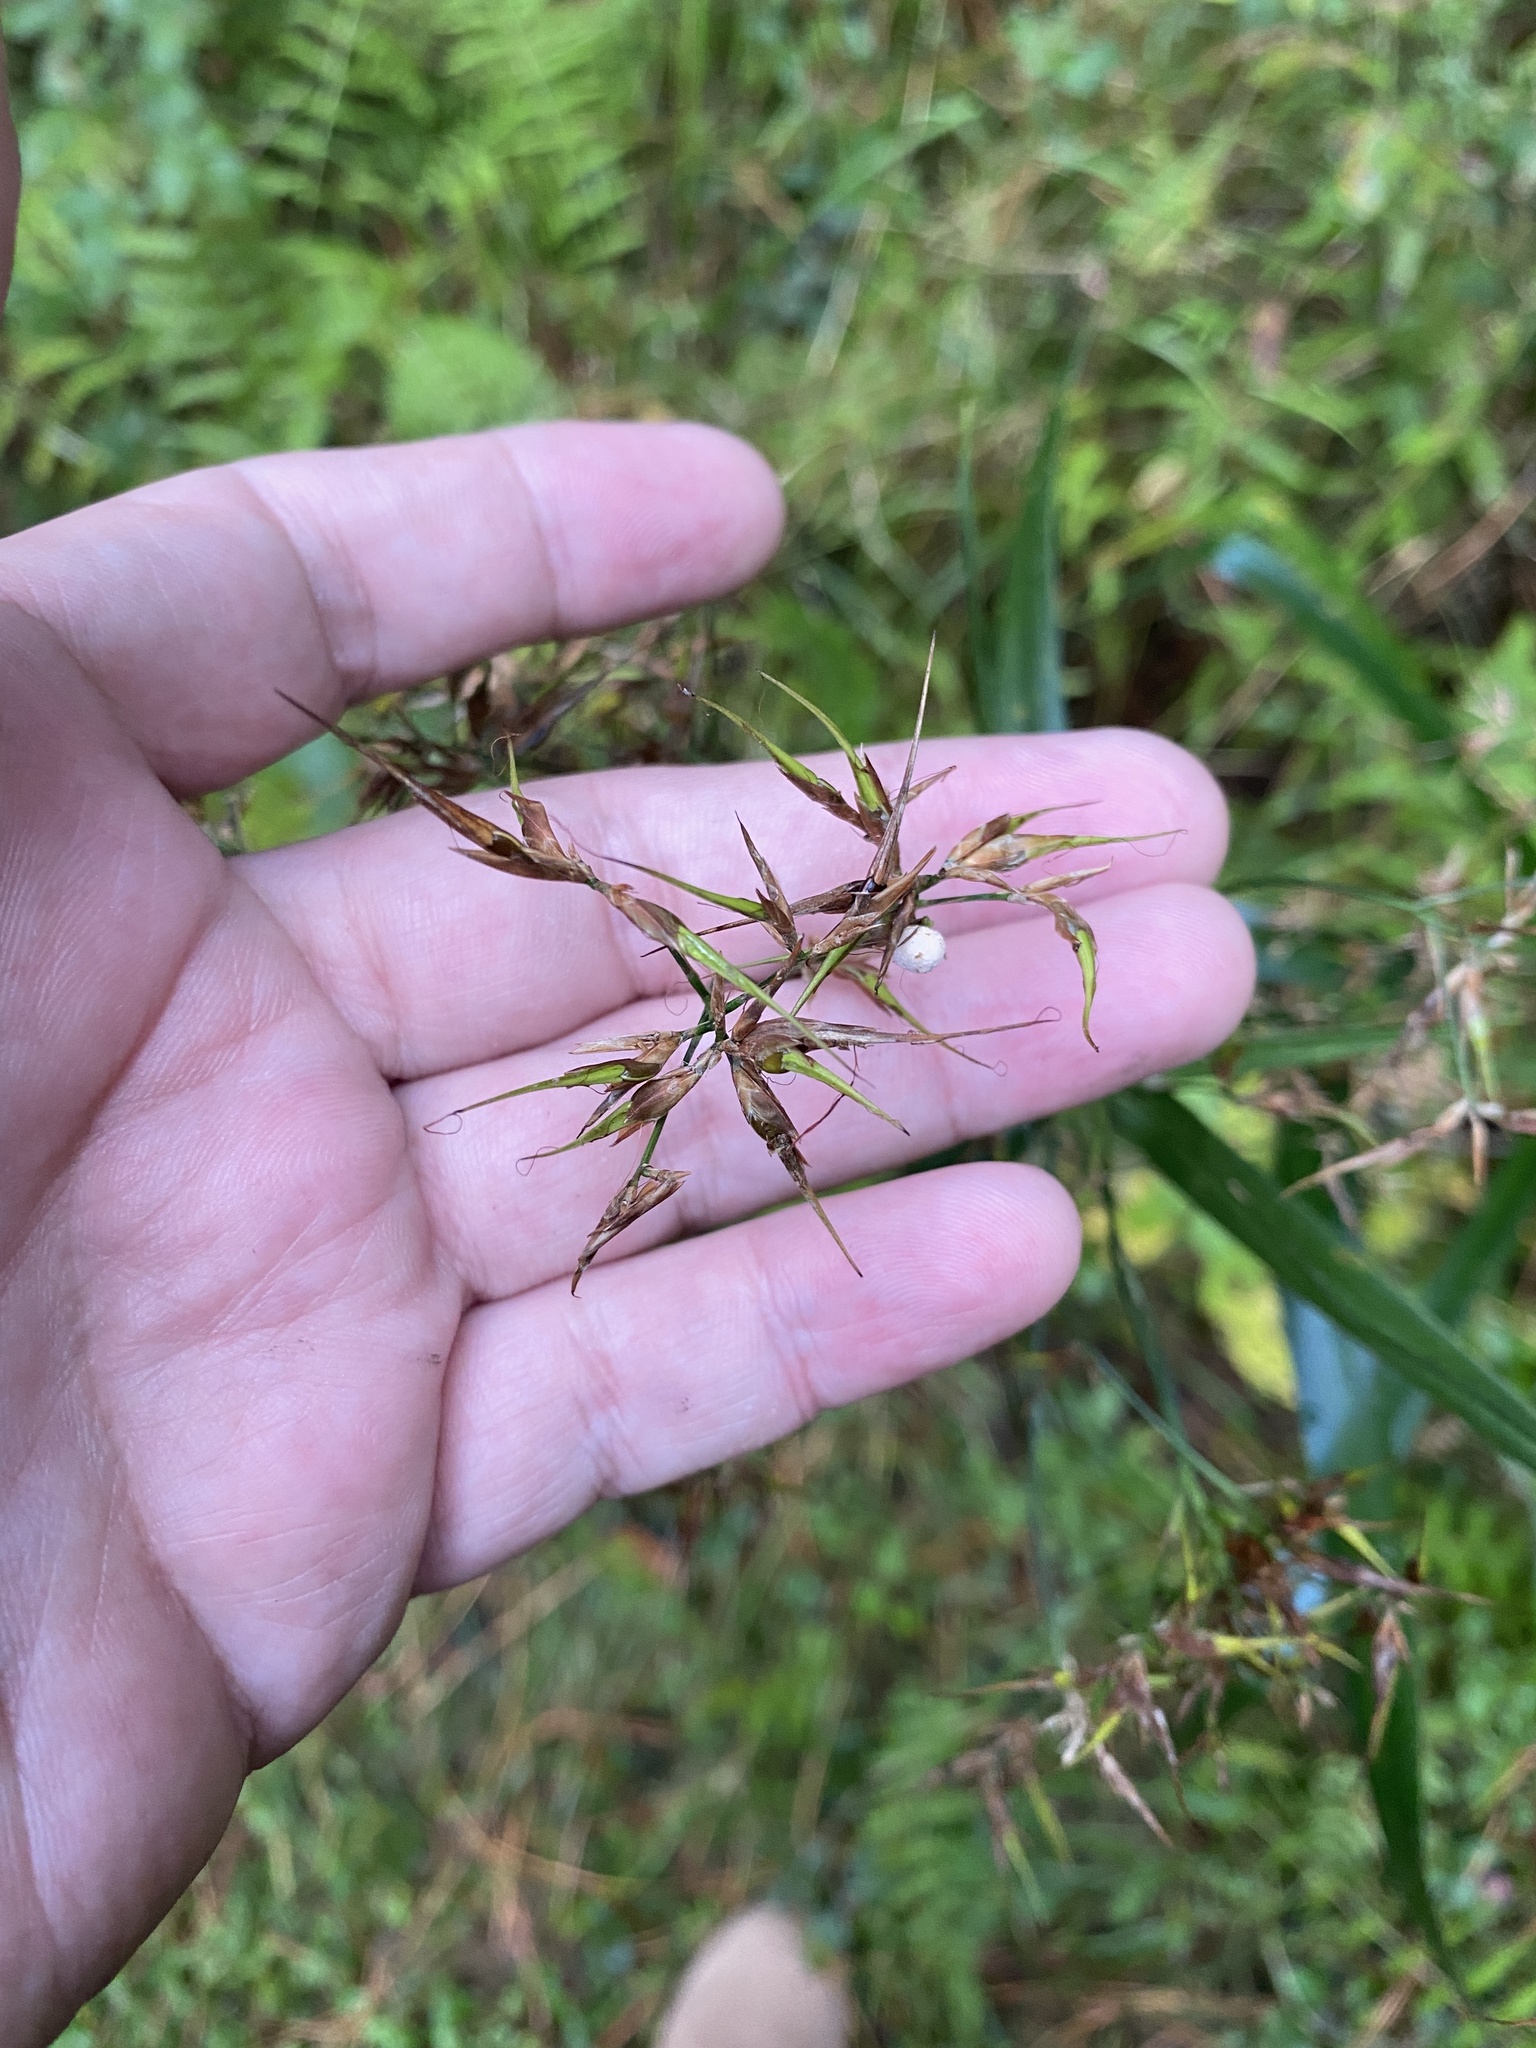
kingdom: Fungi
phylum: Basidiomycota
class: Ustilaginomycetes
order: Ustilaginales
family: Anthracoideaceae
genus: Testicularia
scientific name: Testicularia cyperi
